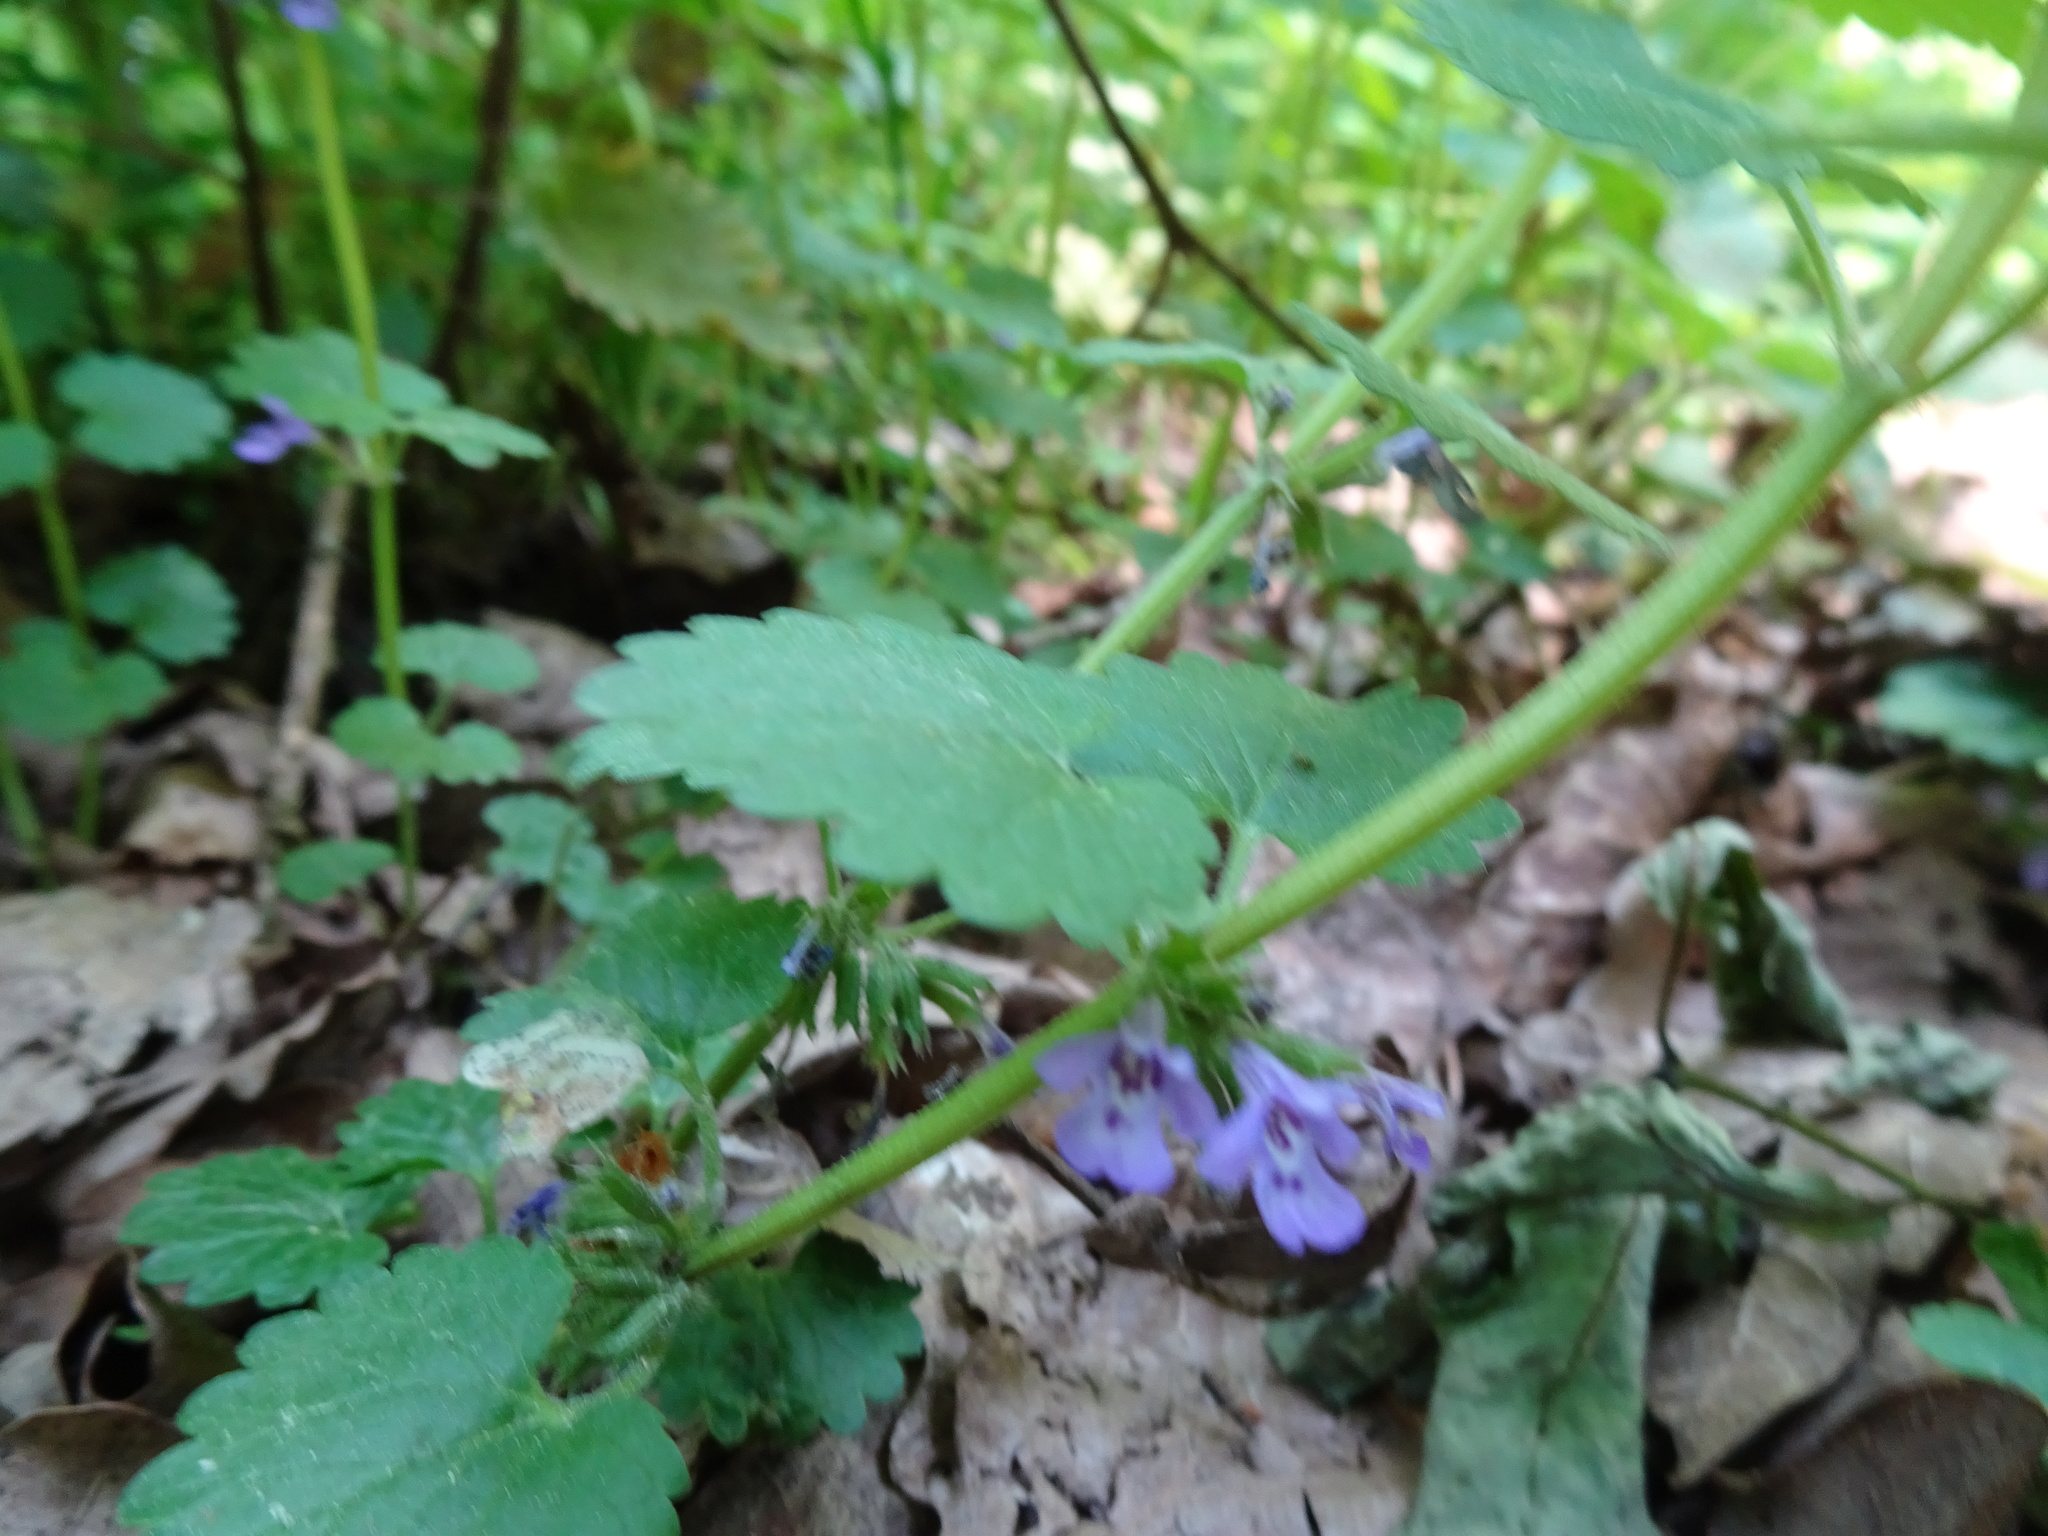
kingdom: Plantae
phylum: Tracheophyta
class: Magnoliopsida
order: Lamiales
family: Lamiaceae
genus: Glechoma
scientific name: Glechoma hederacea
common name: Ground ivy
